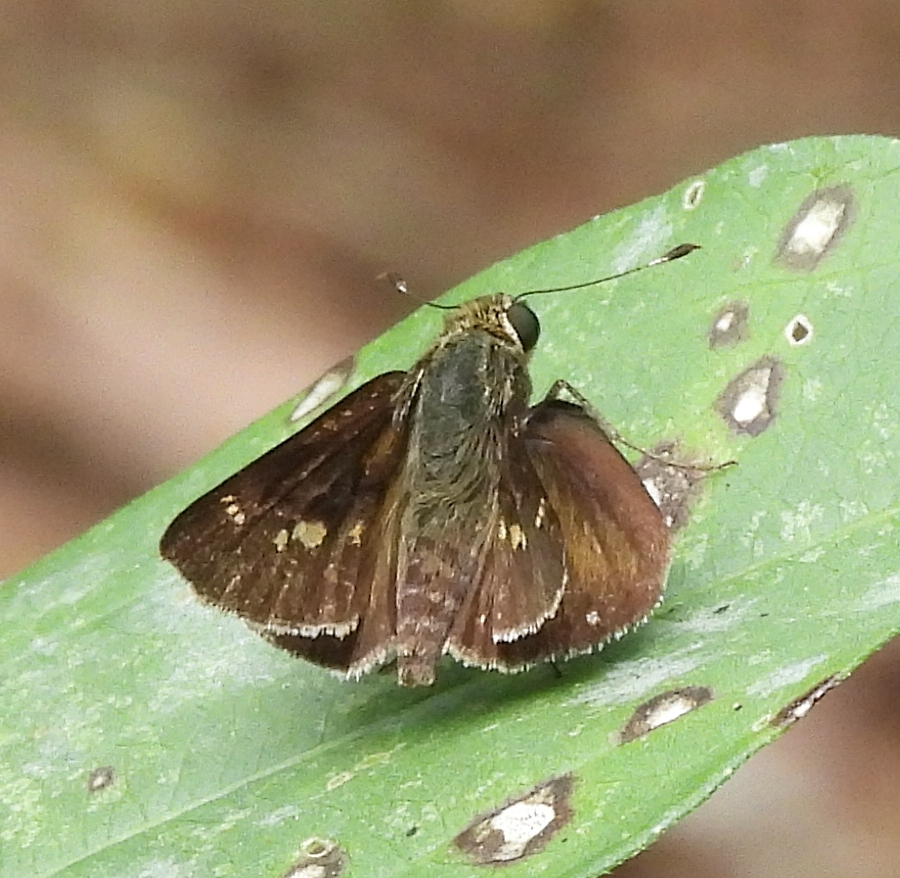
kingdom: Animalia
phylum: Arthropoda
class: Insecta
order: Lepidoptera
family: Hesperiidae
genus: Vernia
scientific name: Vernia verna
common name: Little glassywing
